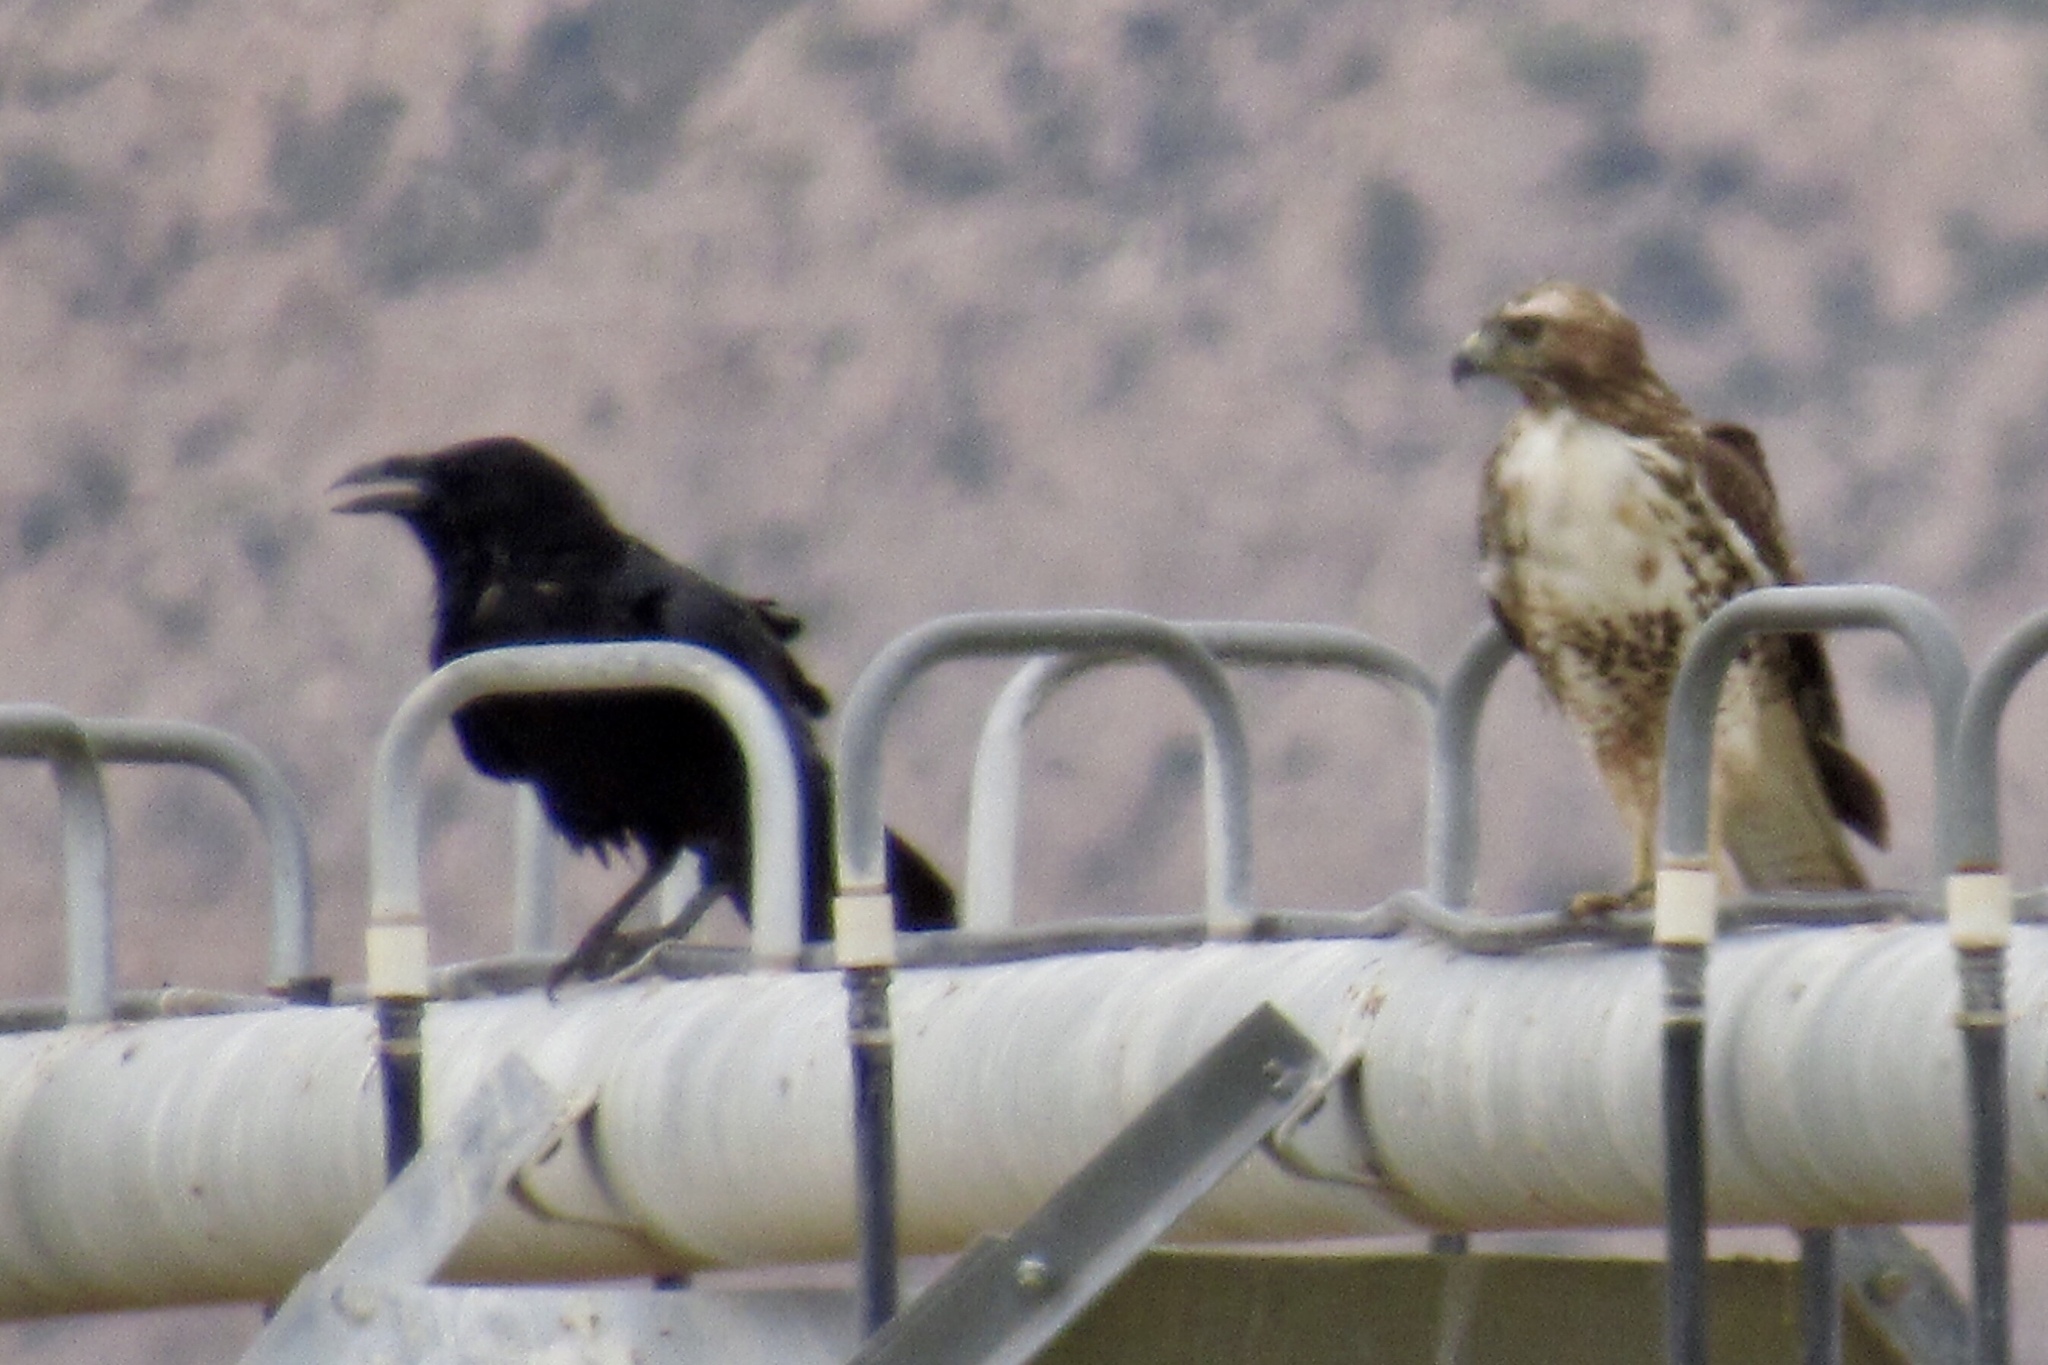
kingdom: Animalia
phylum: Chordata
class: Aves
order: Passeriformes
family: Corvidae
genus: Corvus
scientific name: Corvus corax
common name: Common raven
